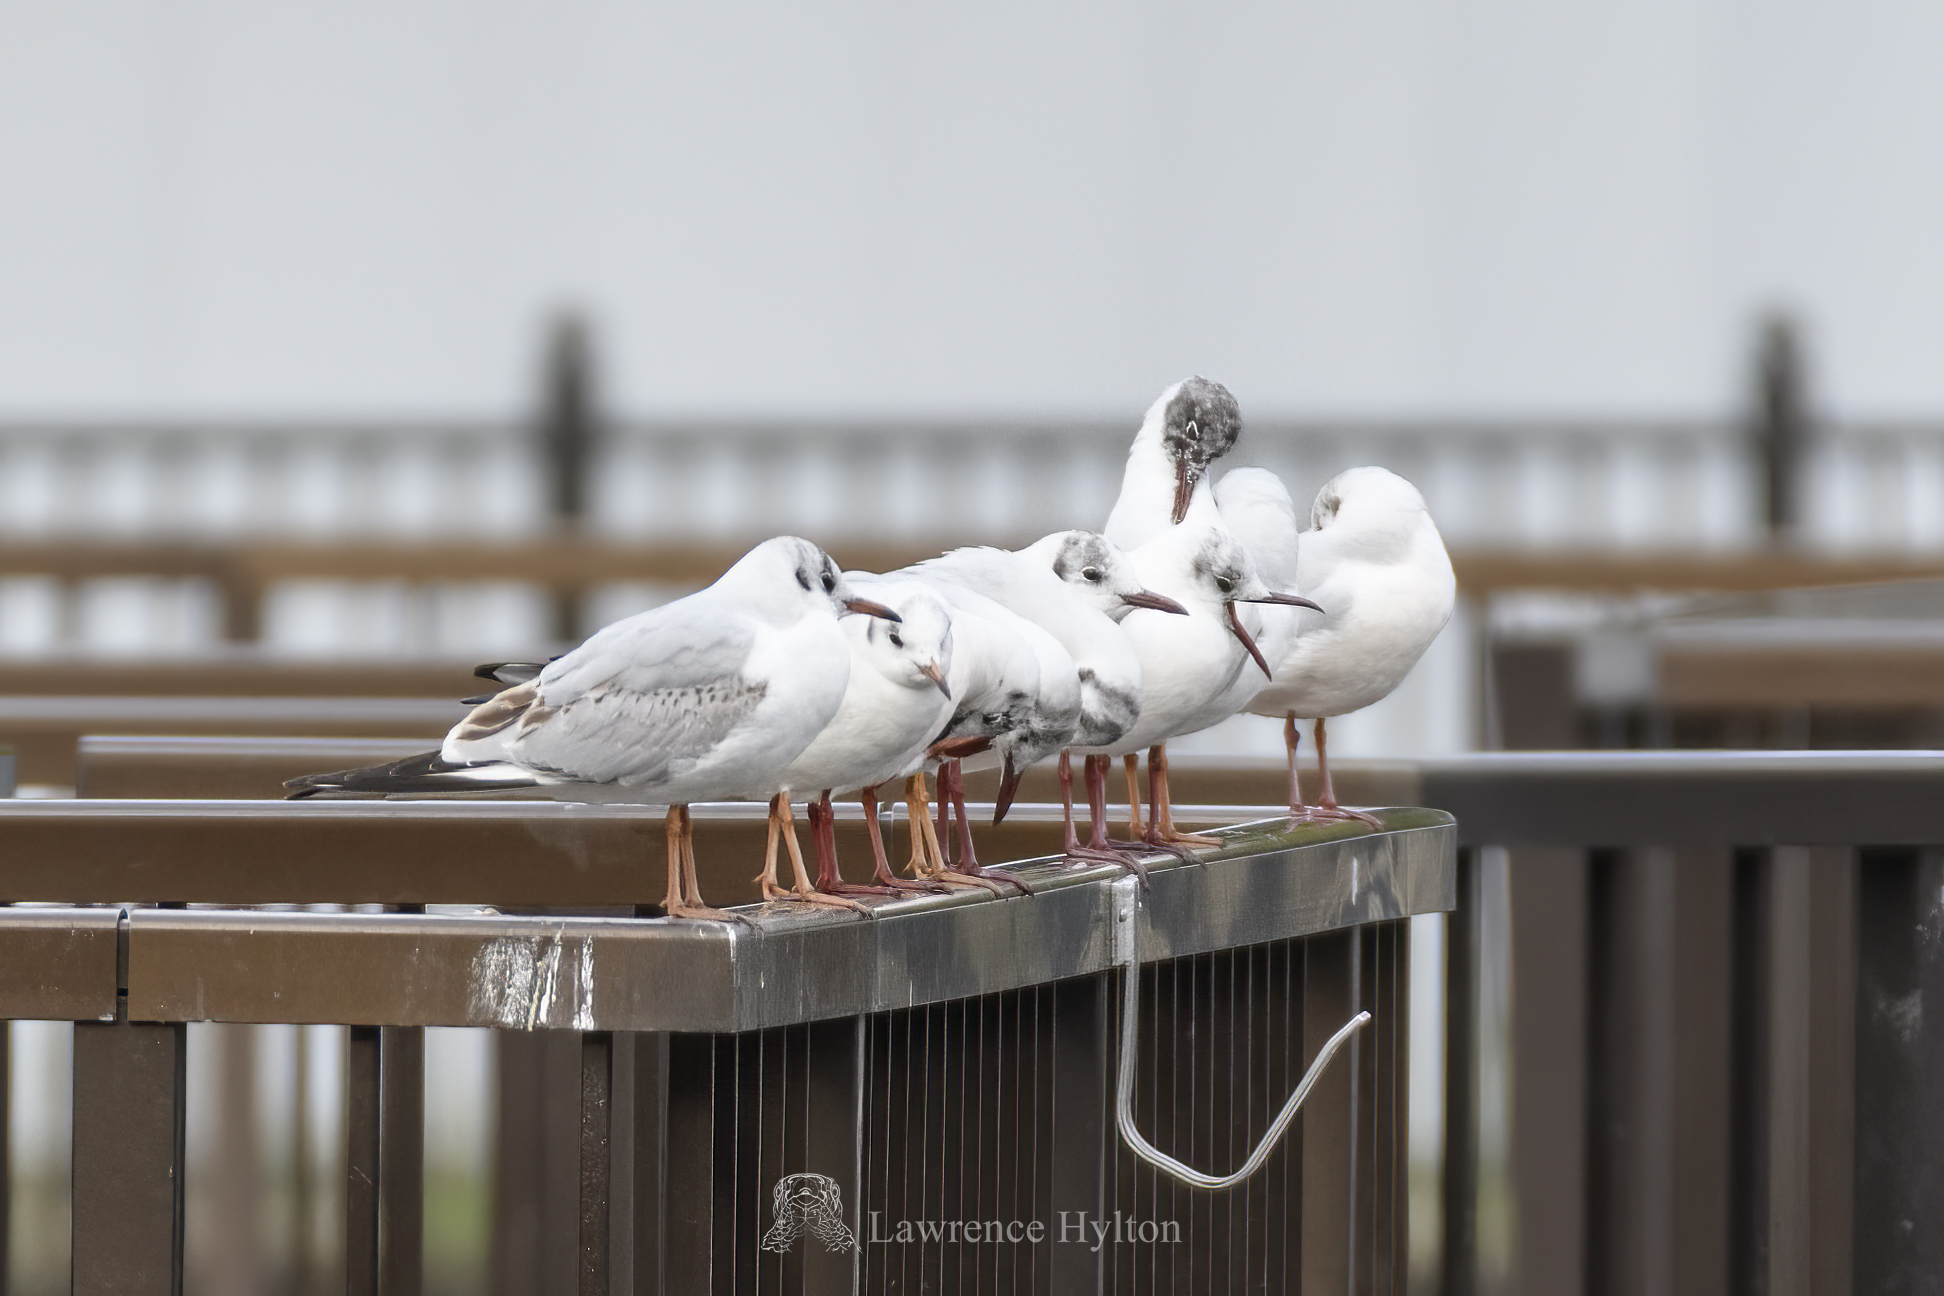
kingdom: Animalia
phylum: Chordata
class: Aves
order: Charadriiformes
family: Laridae
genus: Chroicocephalus
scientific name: Chroicocephalus ridibundus
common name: Black-headed gull
